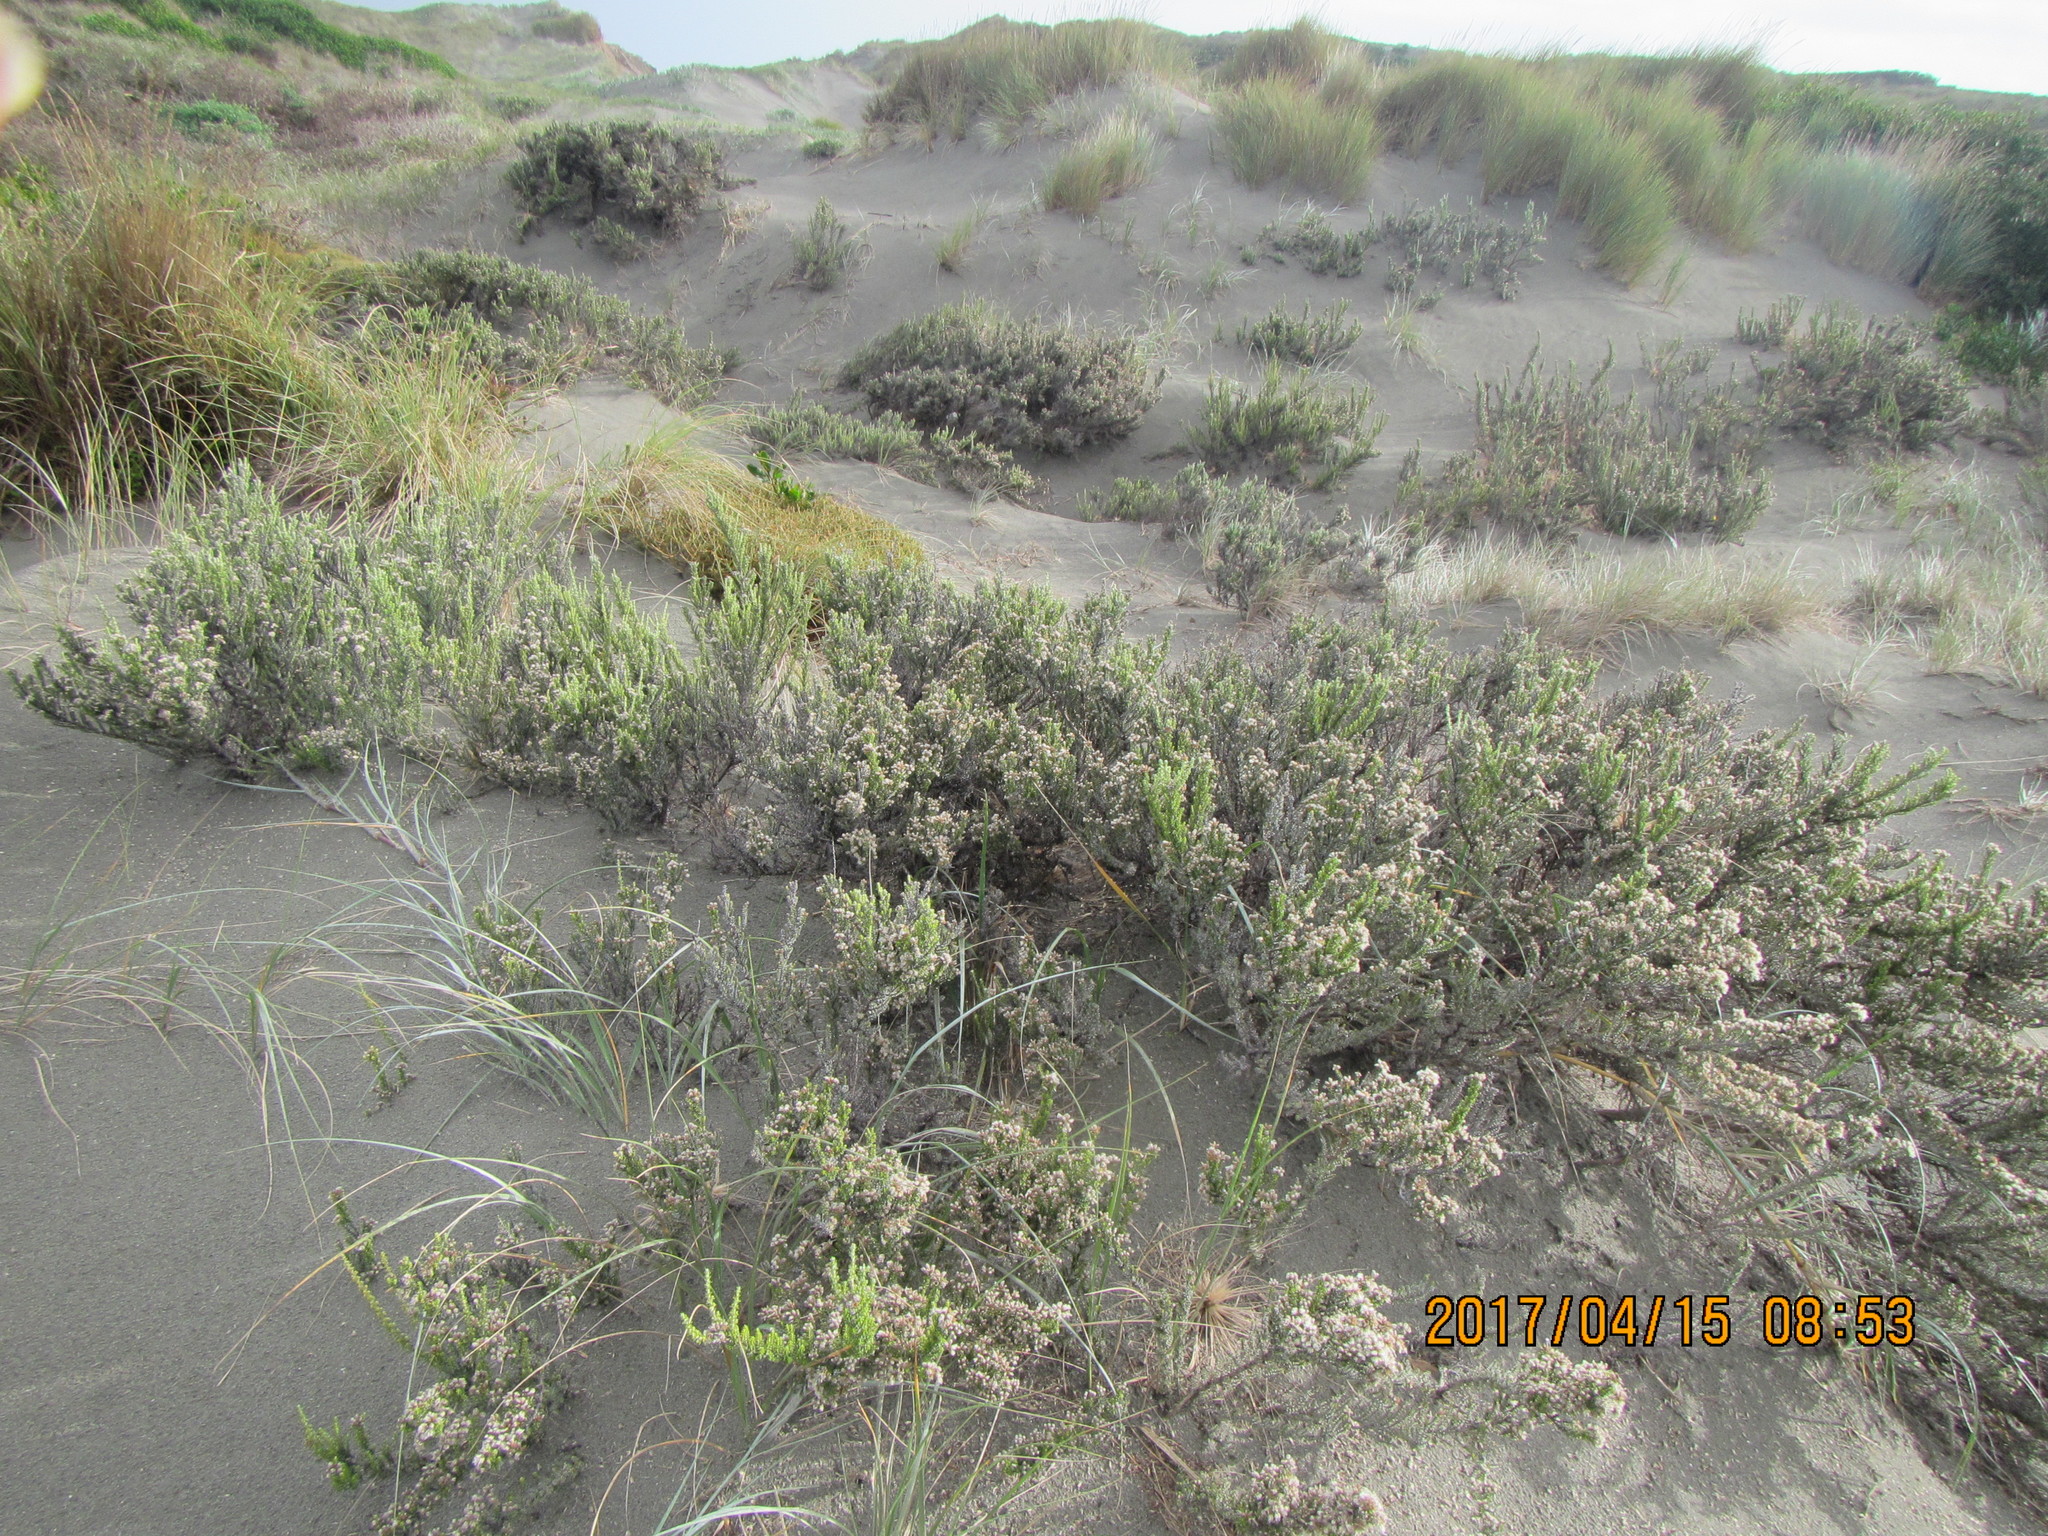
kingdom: Plantae
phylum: Tracheophyta
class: Magnoliopsida
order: Asterales
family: Asteraceae
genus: Ozothamnus
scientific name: Ozothamnus leptophyllus
